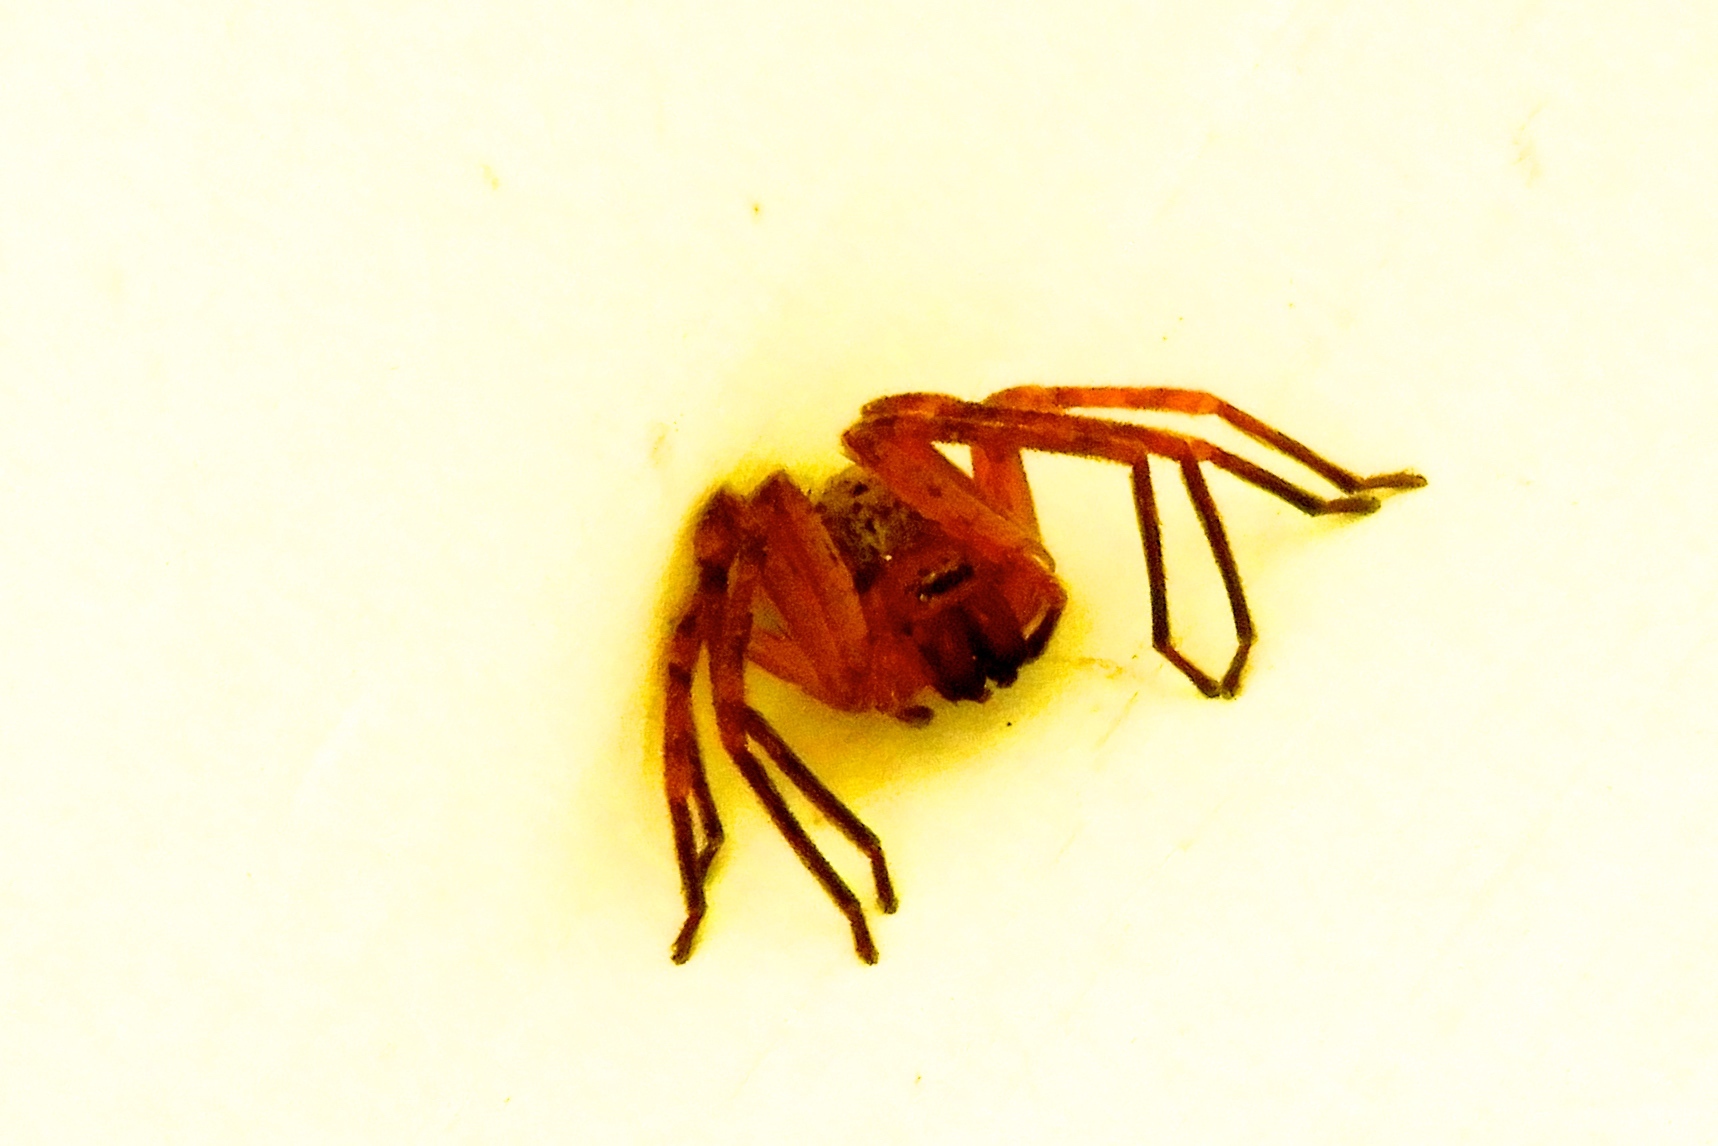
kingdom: Animalia
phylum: Arthropoda
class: Arachnida
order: Araneae
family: Sparassidae
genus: Curicaberis
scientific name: Curicaberis culiacan
